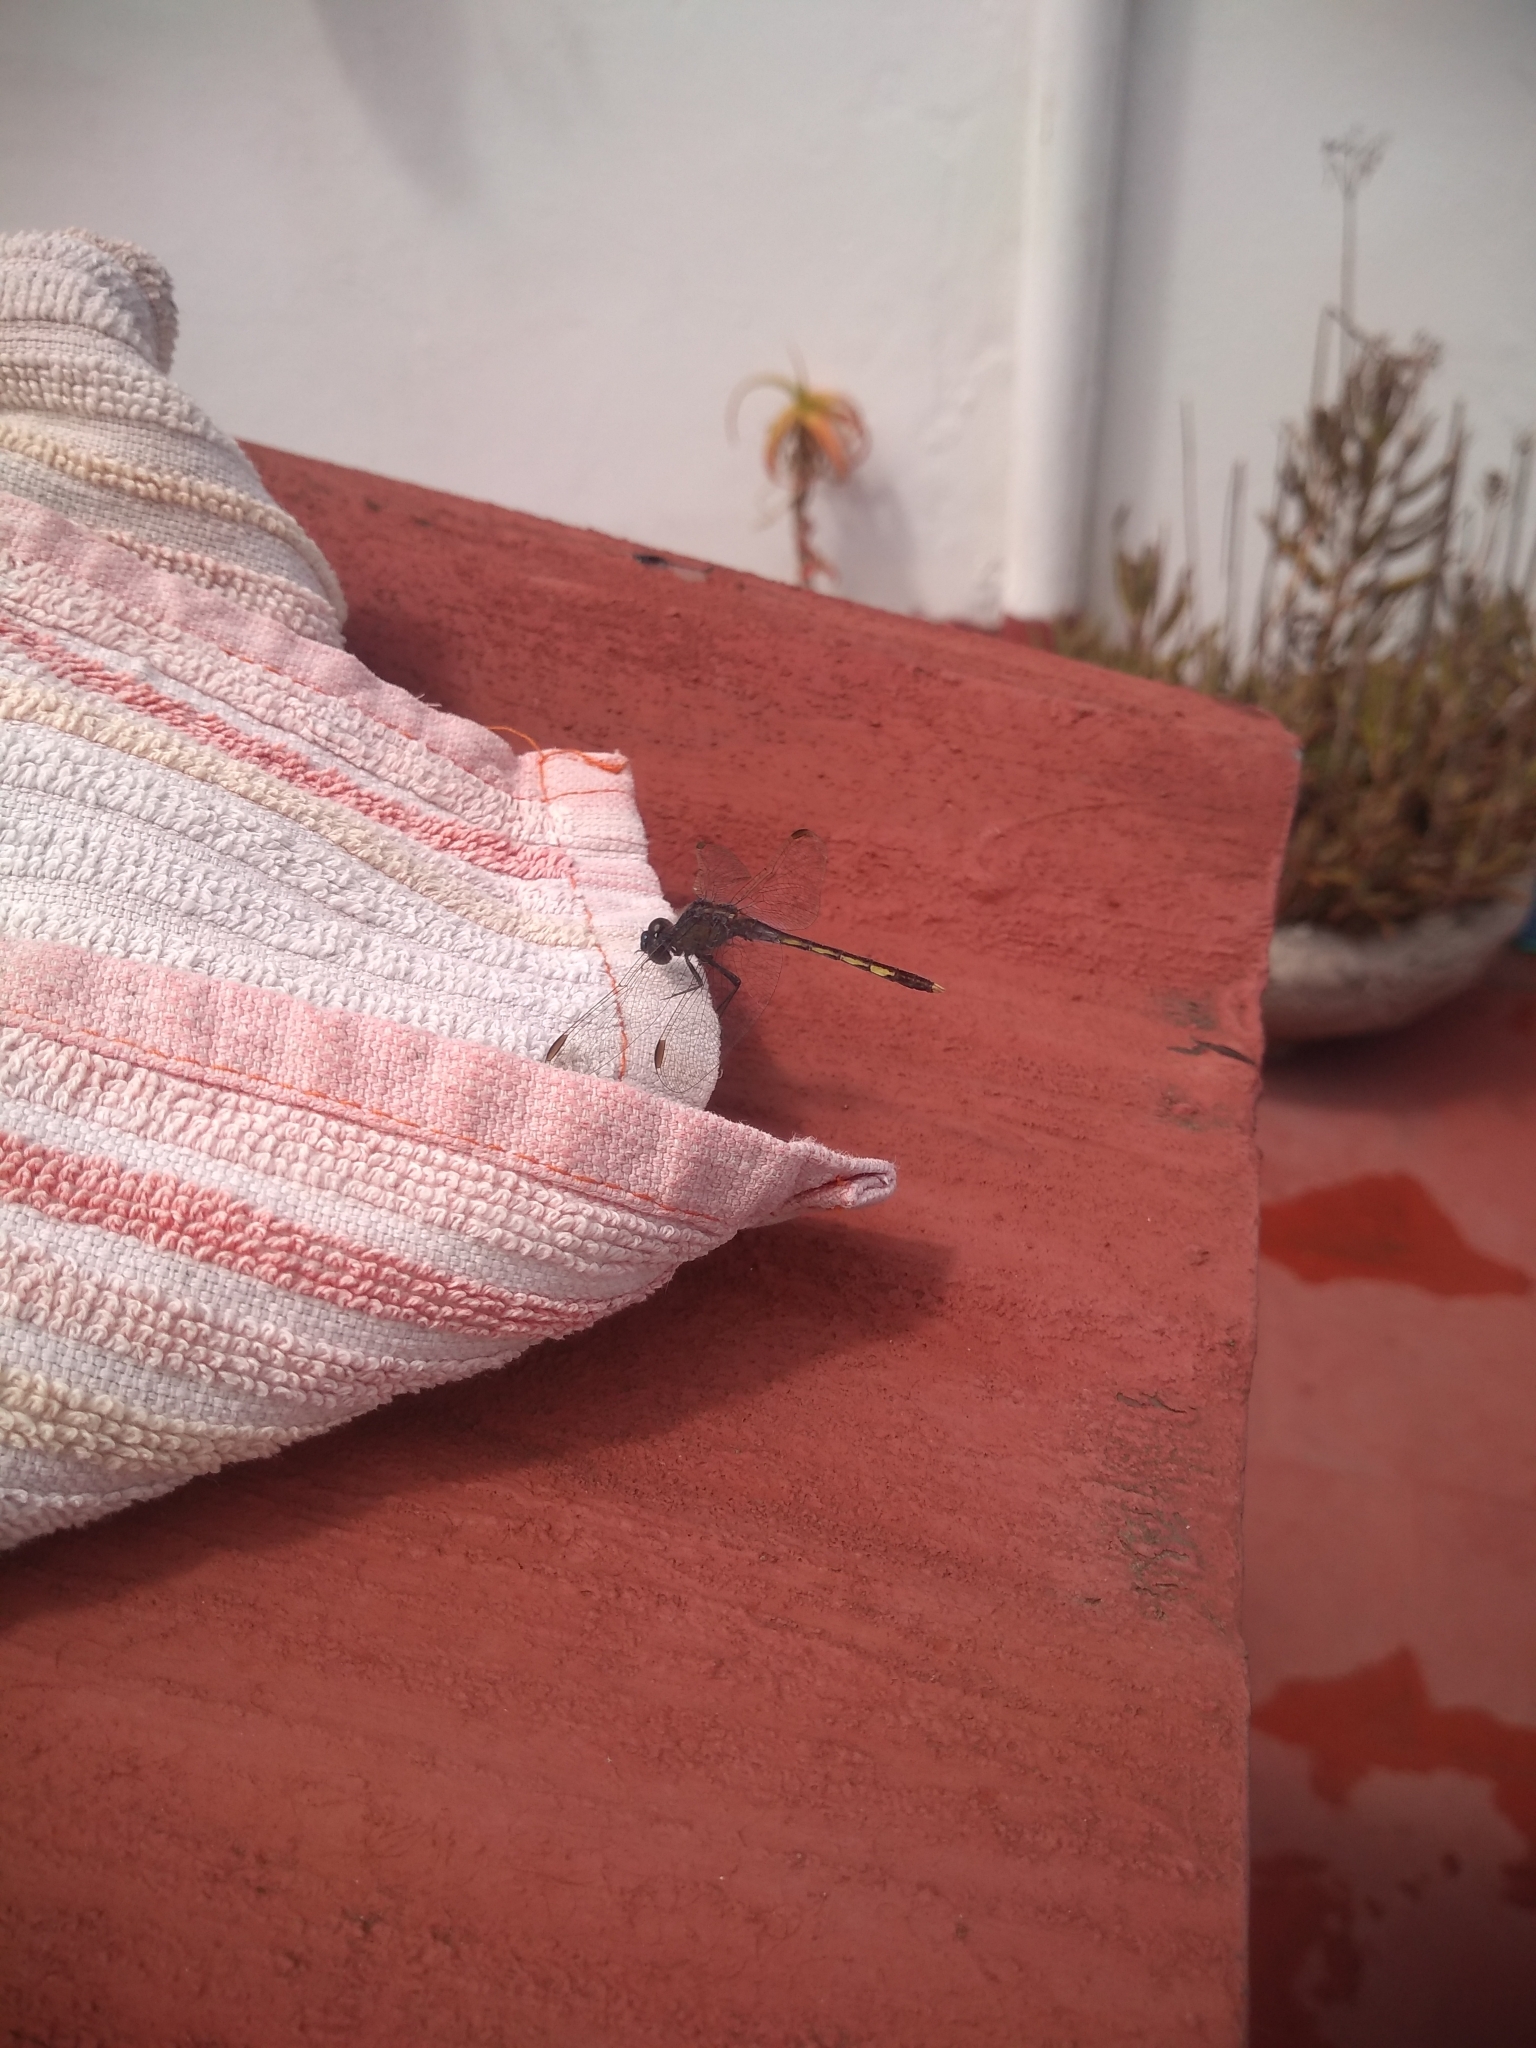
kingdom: Animalia
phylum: Arthropoda
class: Insecta
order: Odonata
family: Libellulidae
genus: Erythrodiplax
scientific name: Erythrodiplax nigricans
